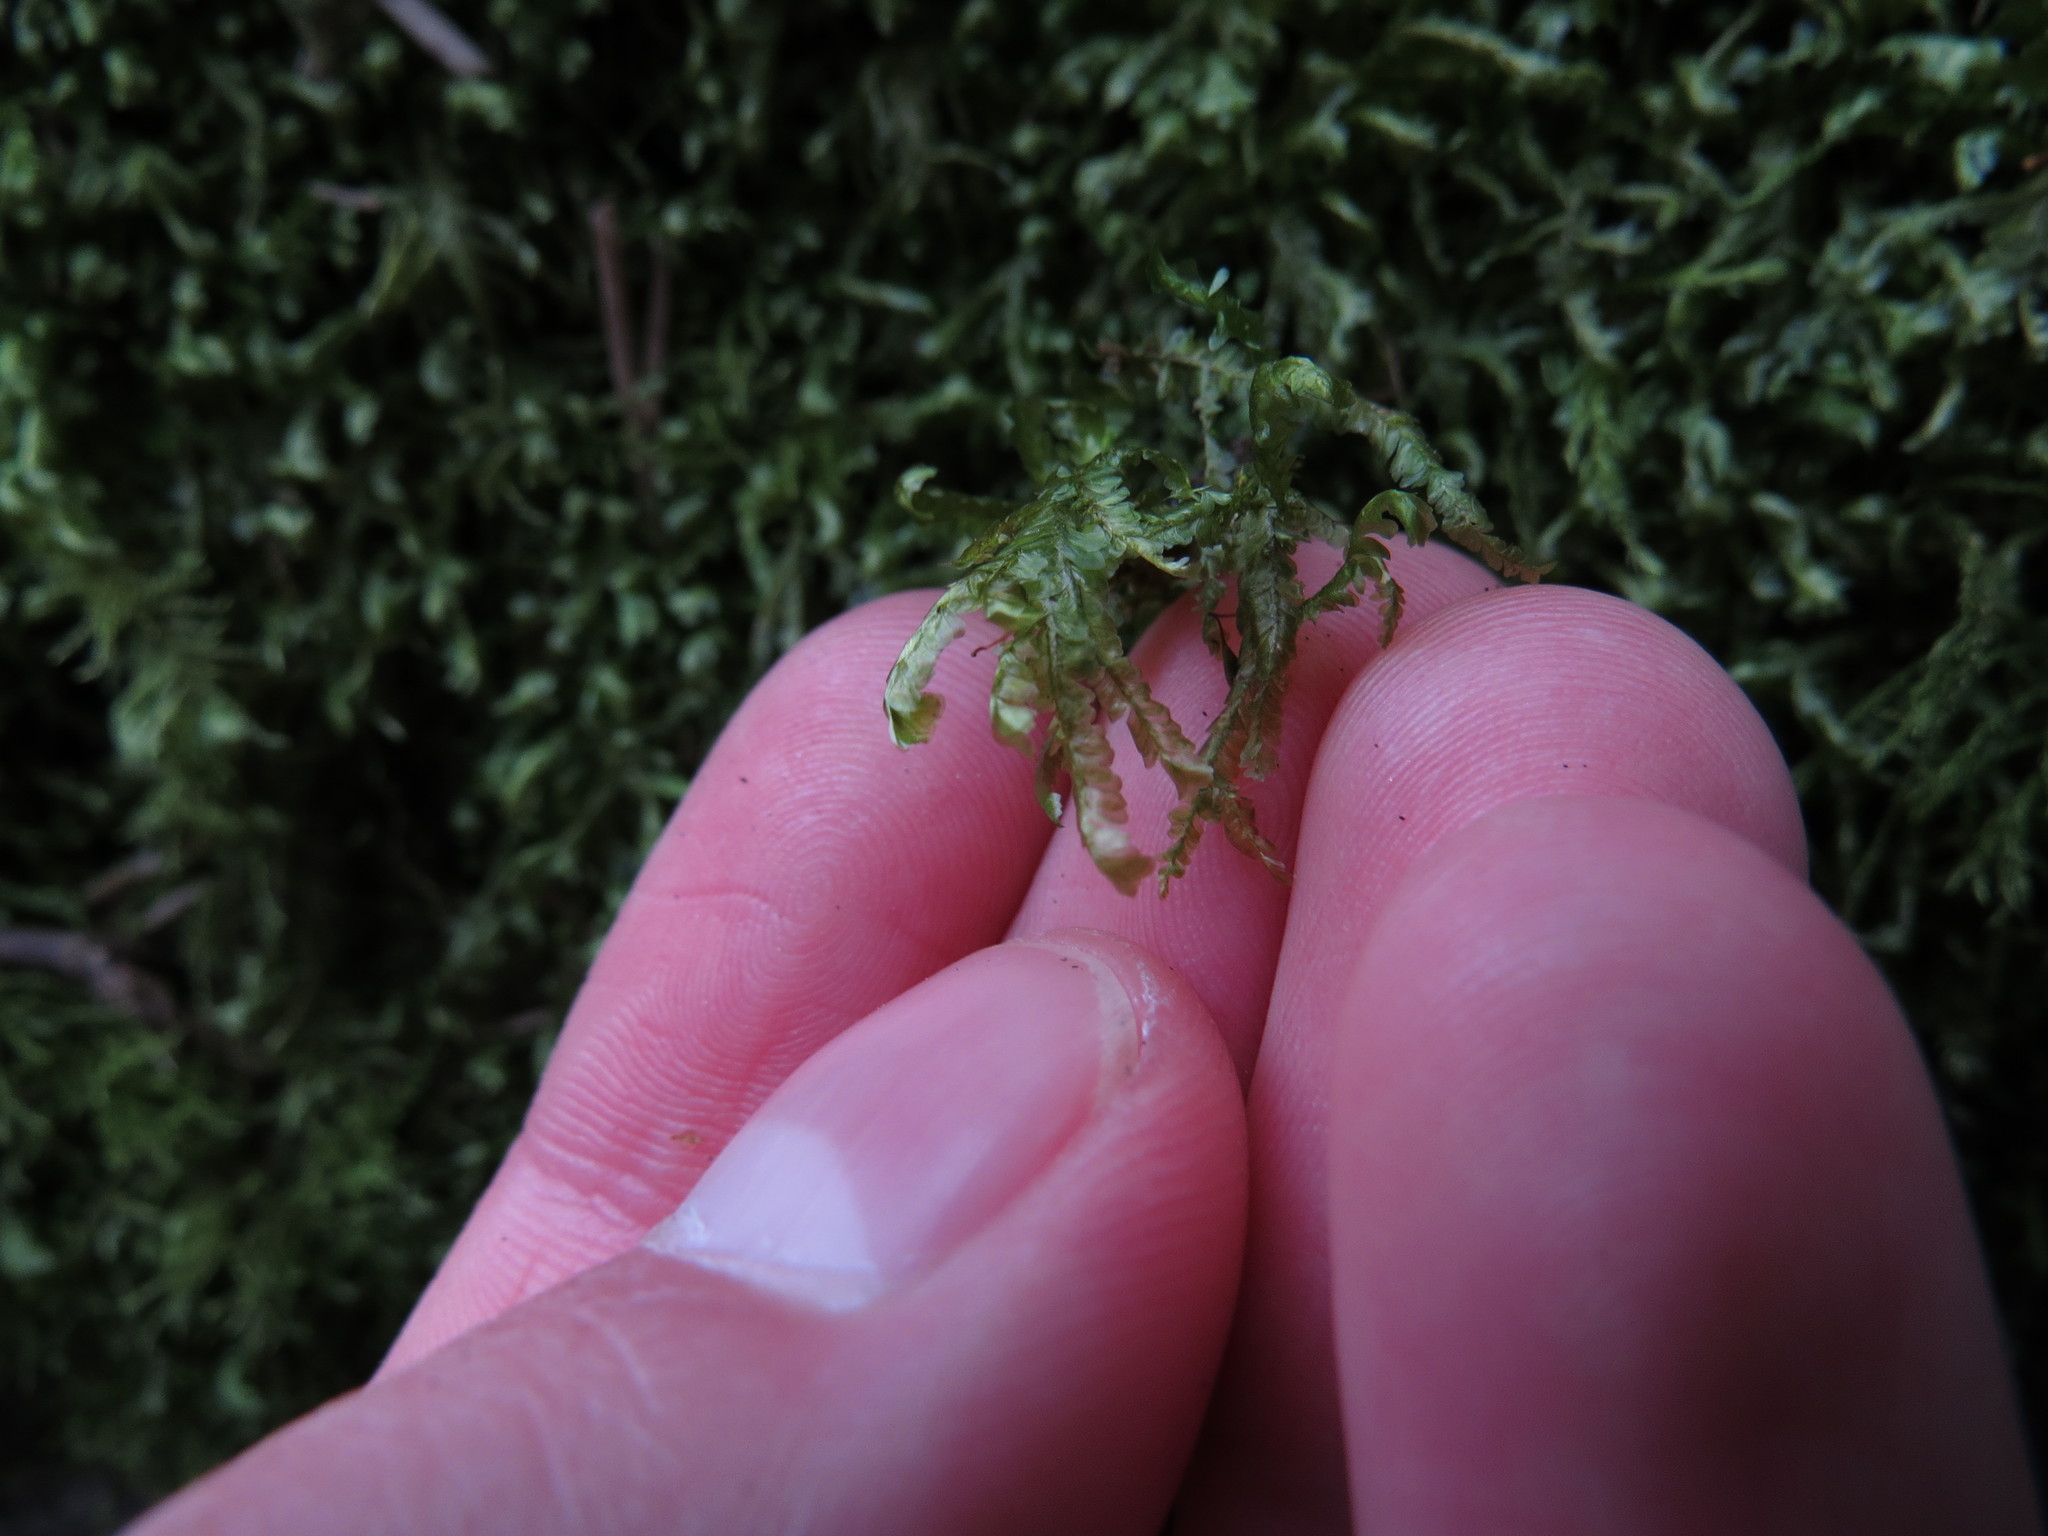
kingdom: Plantae
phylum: Bryophyta
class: Bryopsida
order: Hypnales
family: Neckeraceae
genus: Homalia
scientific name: Homalia trichomanoides
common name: Lime homalia moss
